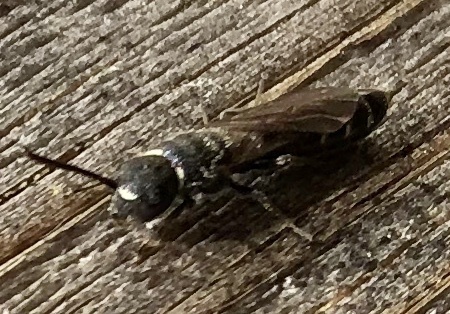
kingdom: Animalia
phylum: Arthropoda
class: Insecta
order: Hymenoptera
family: Sapygidae
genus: Sapygina
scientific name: Sapygina decemguttata
